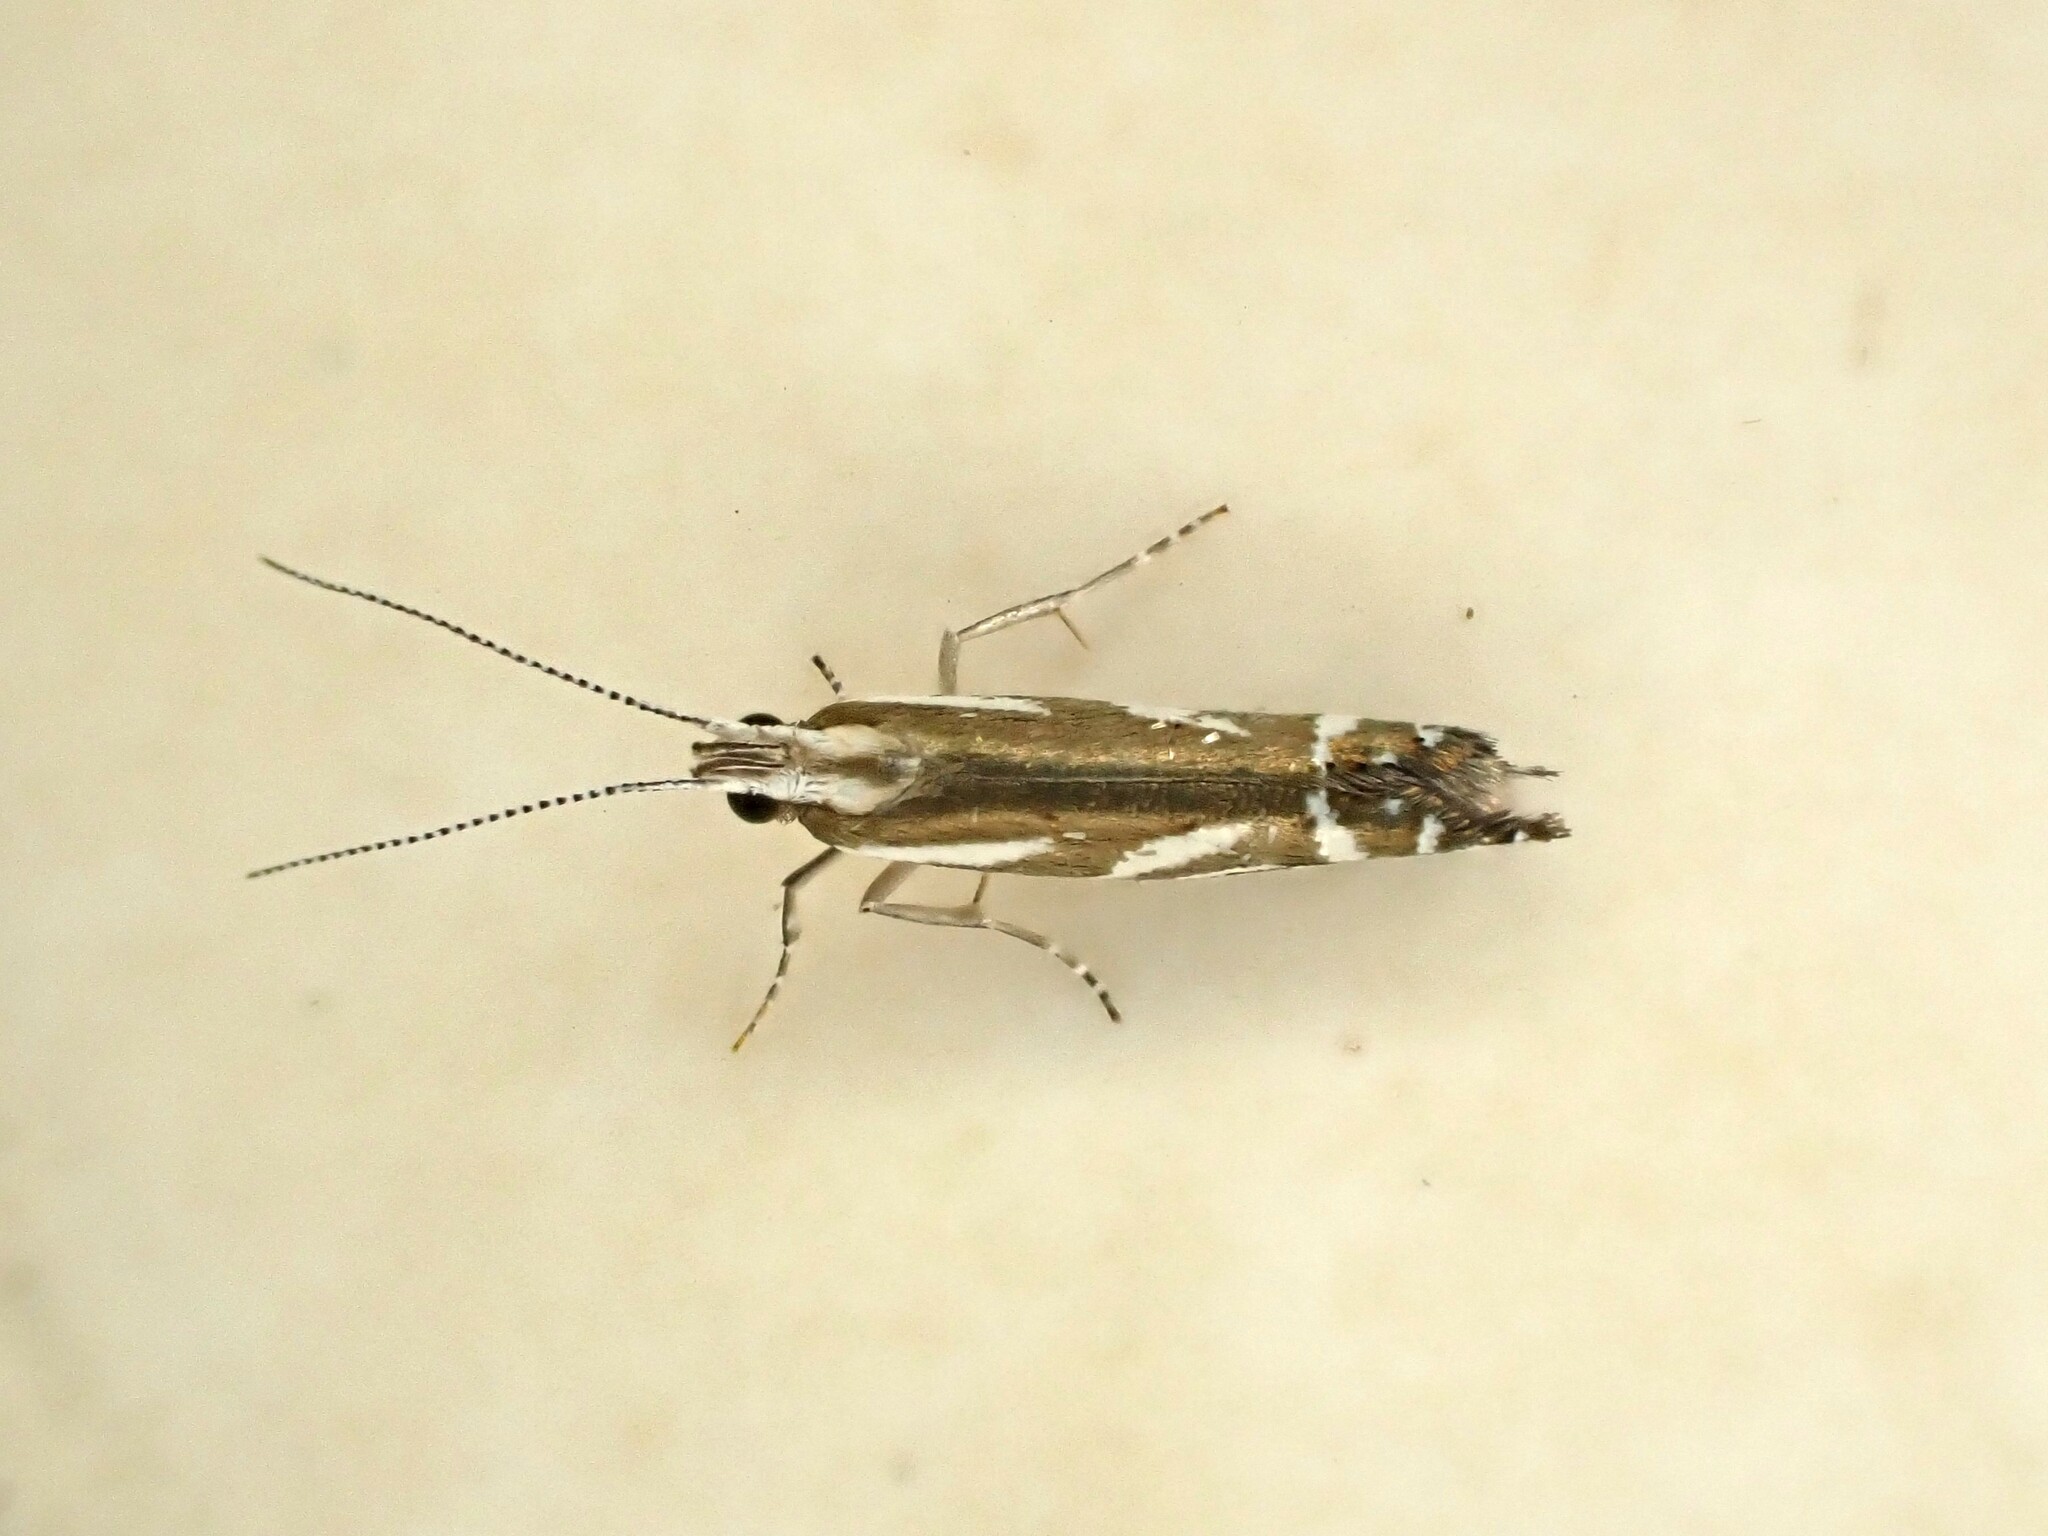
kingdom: Animalia
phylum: Arthropoda
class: Insecta
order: Lepidoptera
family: Glyphipterigidae
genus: Chrysorthenches
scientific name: Chrysorthenches glypharcha
